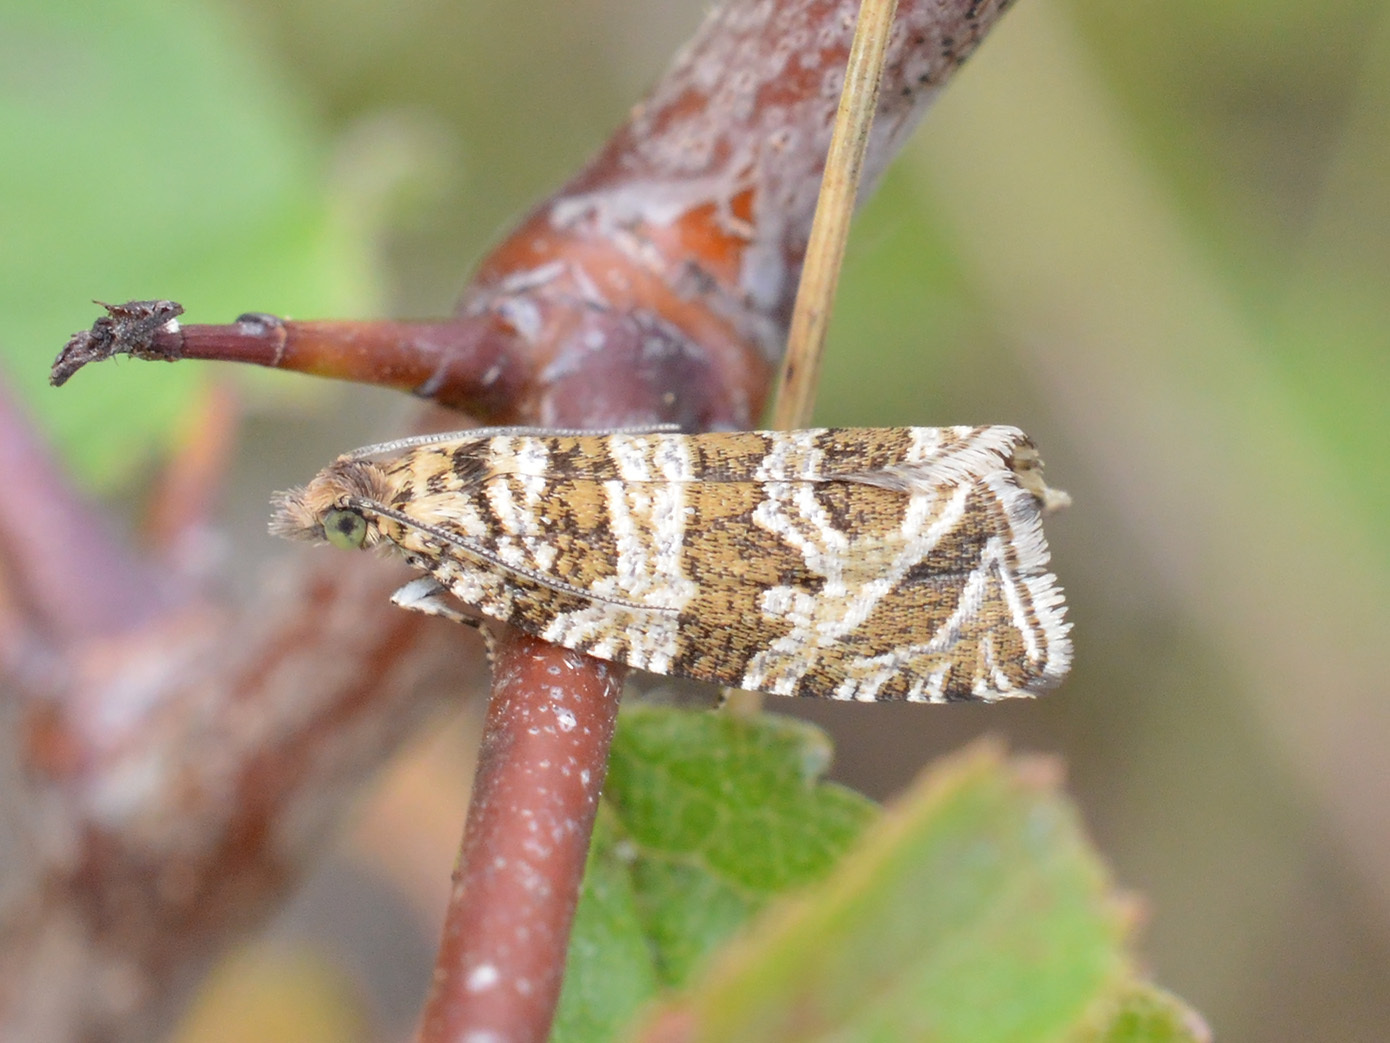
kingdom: Animalia
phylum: Arthropoda
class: Insecta
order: Lepidoptera
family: Tortricidae
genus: Syricoris
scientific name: Syricoris rivulana
